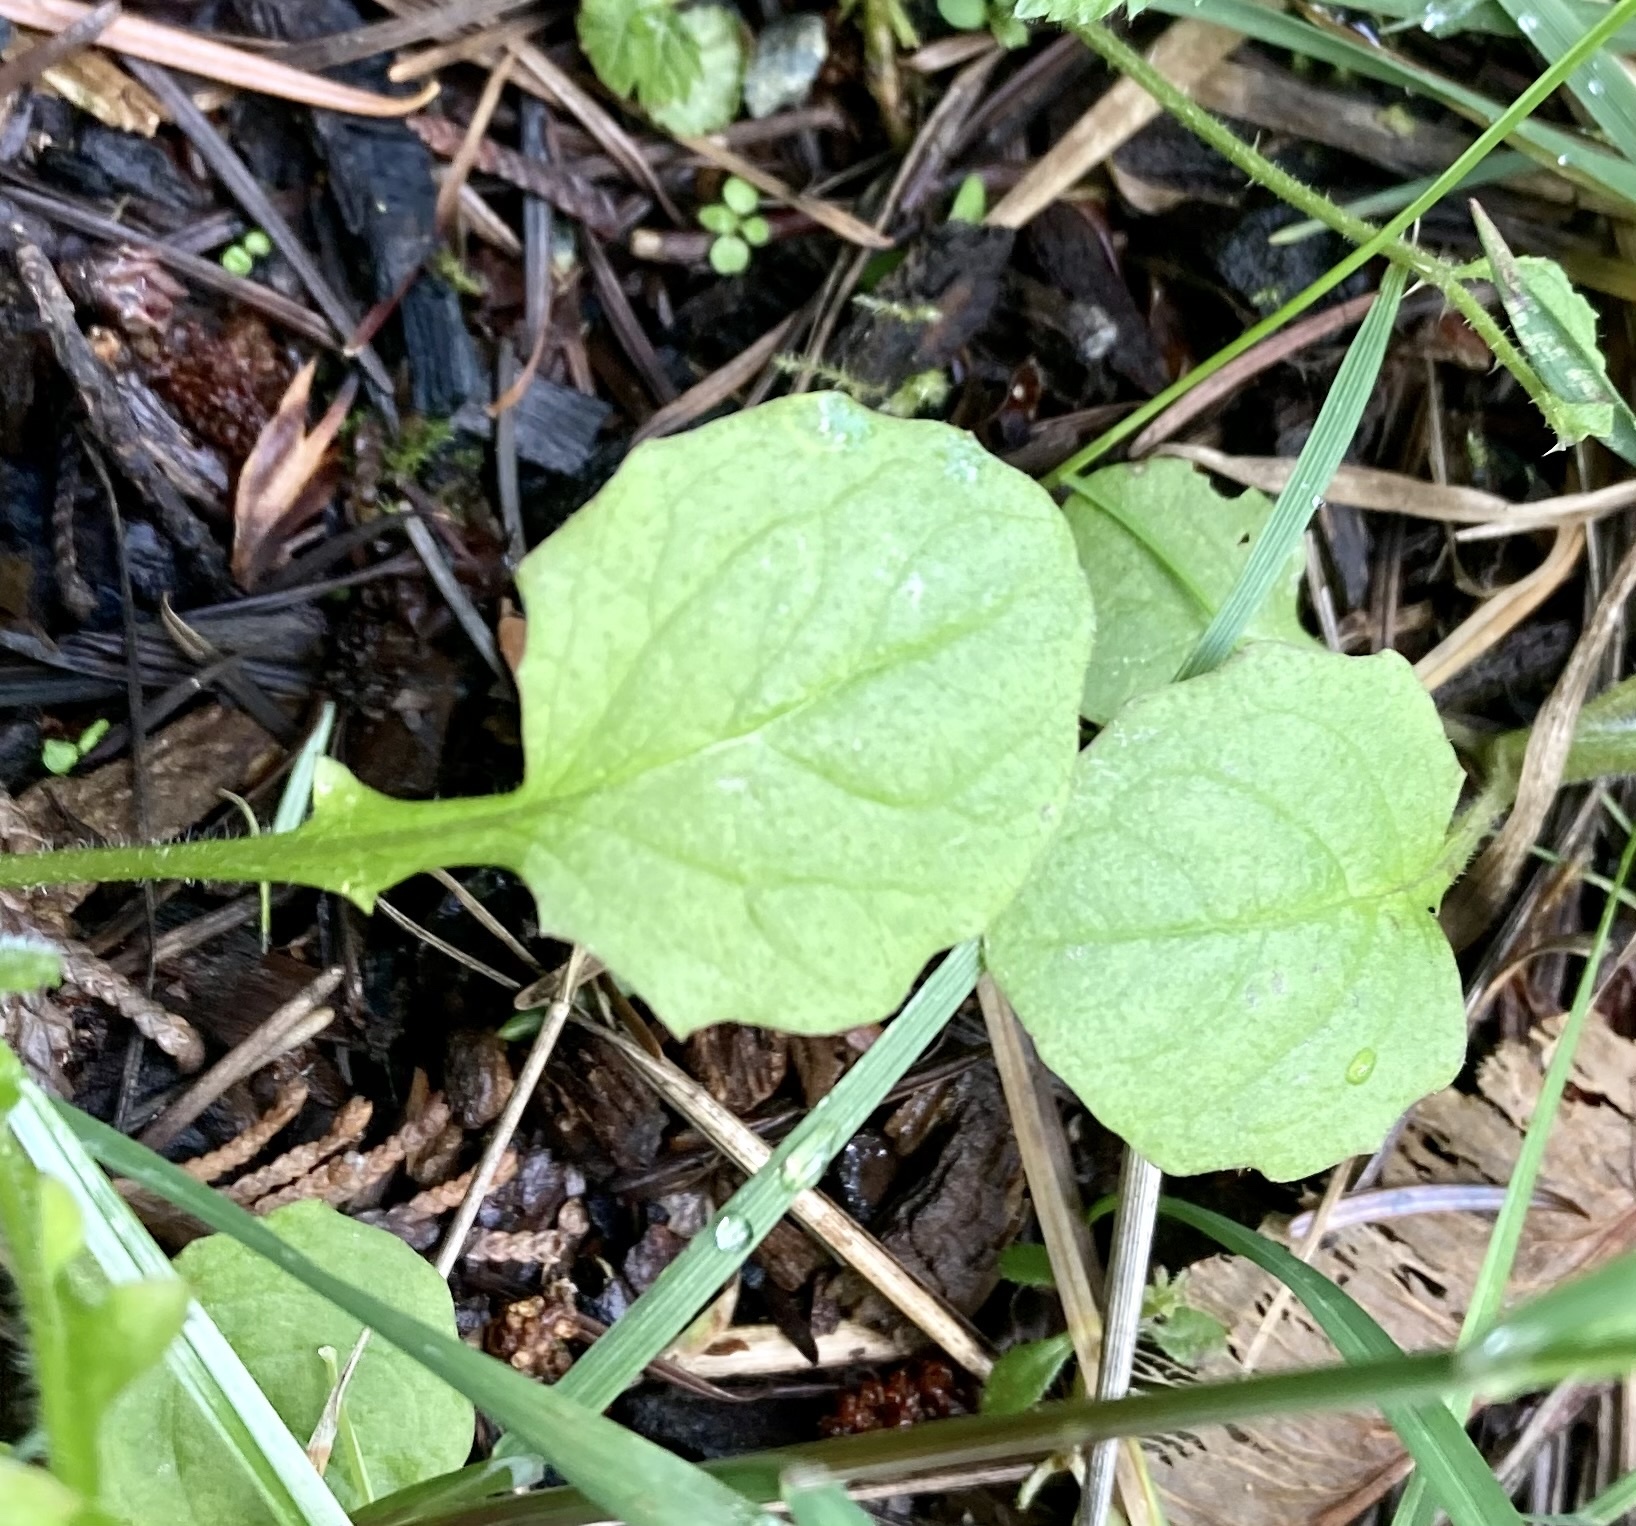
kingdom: Plantae
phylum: Tracheophyta
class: Magnoliopsida
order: Asterales
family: Asteraceae
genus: Lapsana
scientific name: Lapsana communis
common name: Nipplewort
